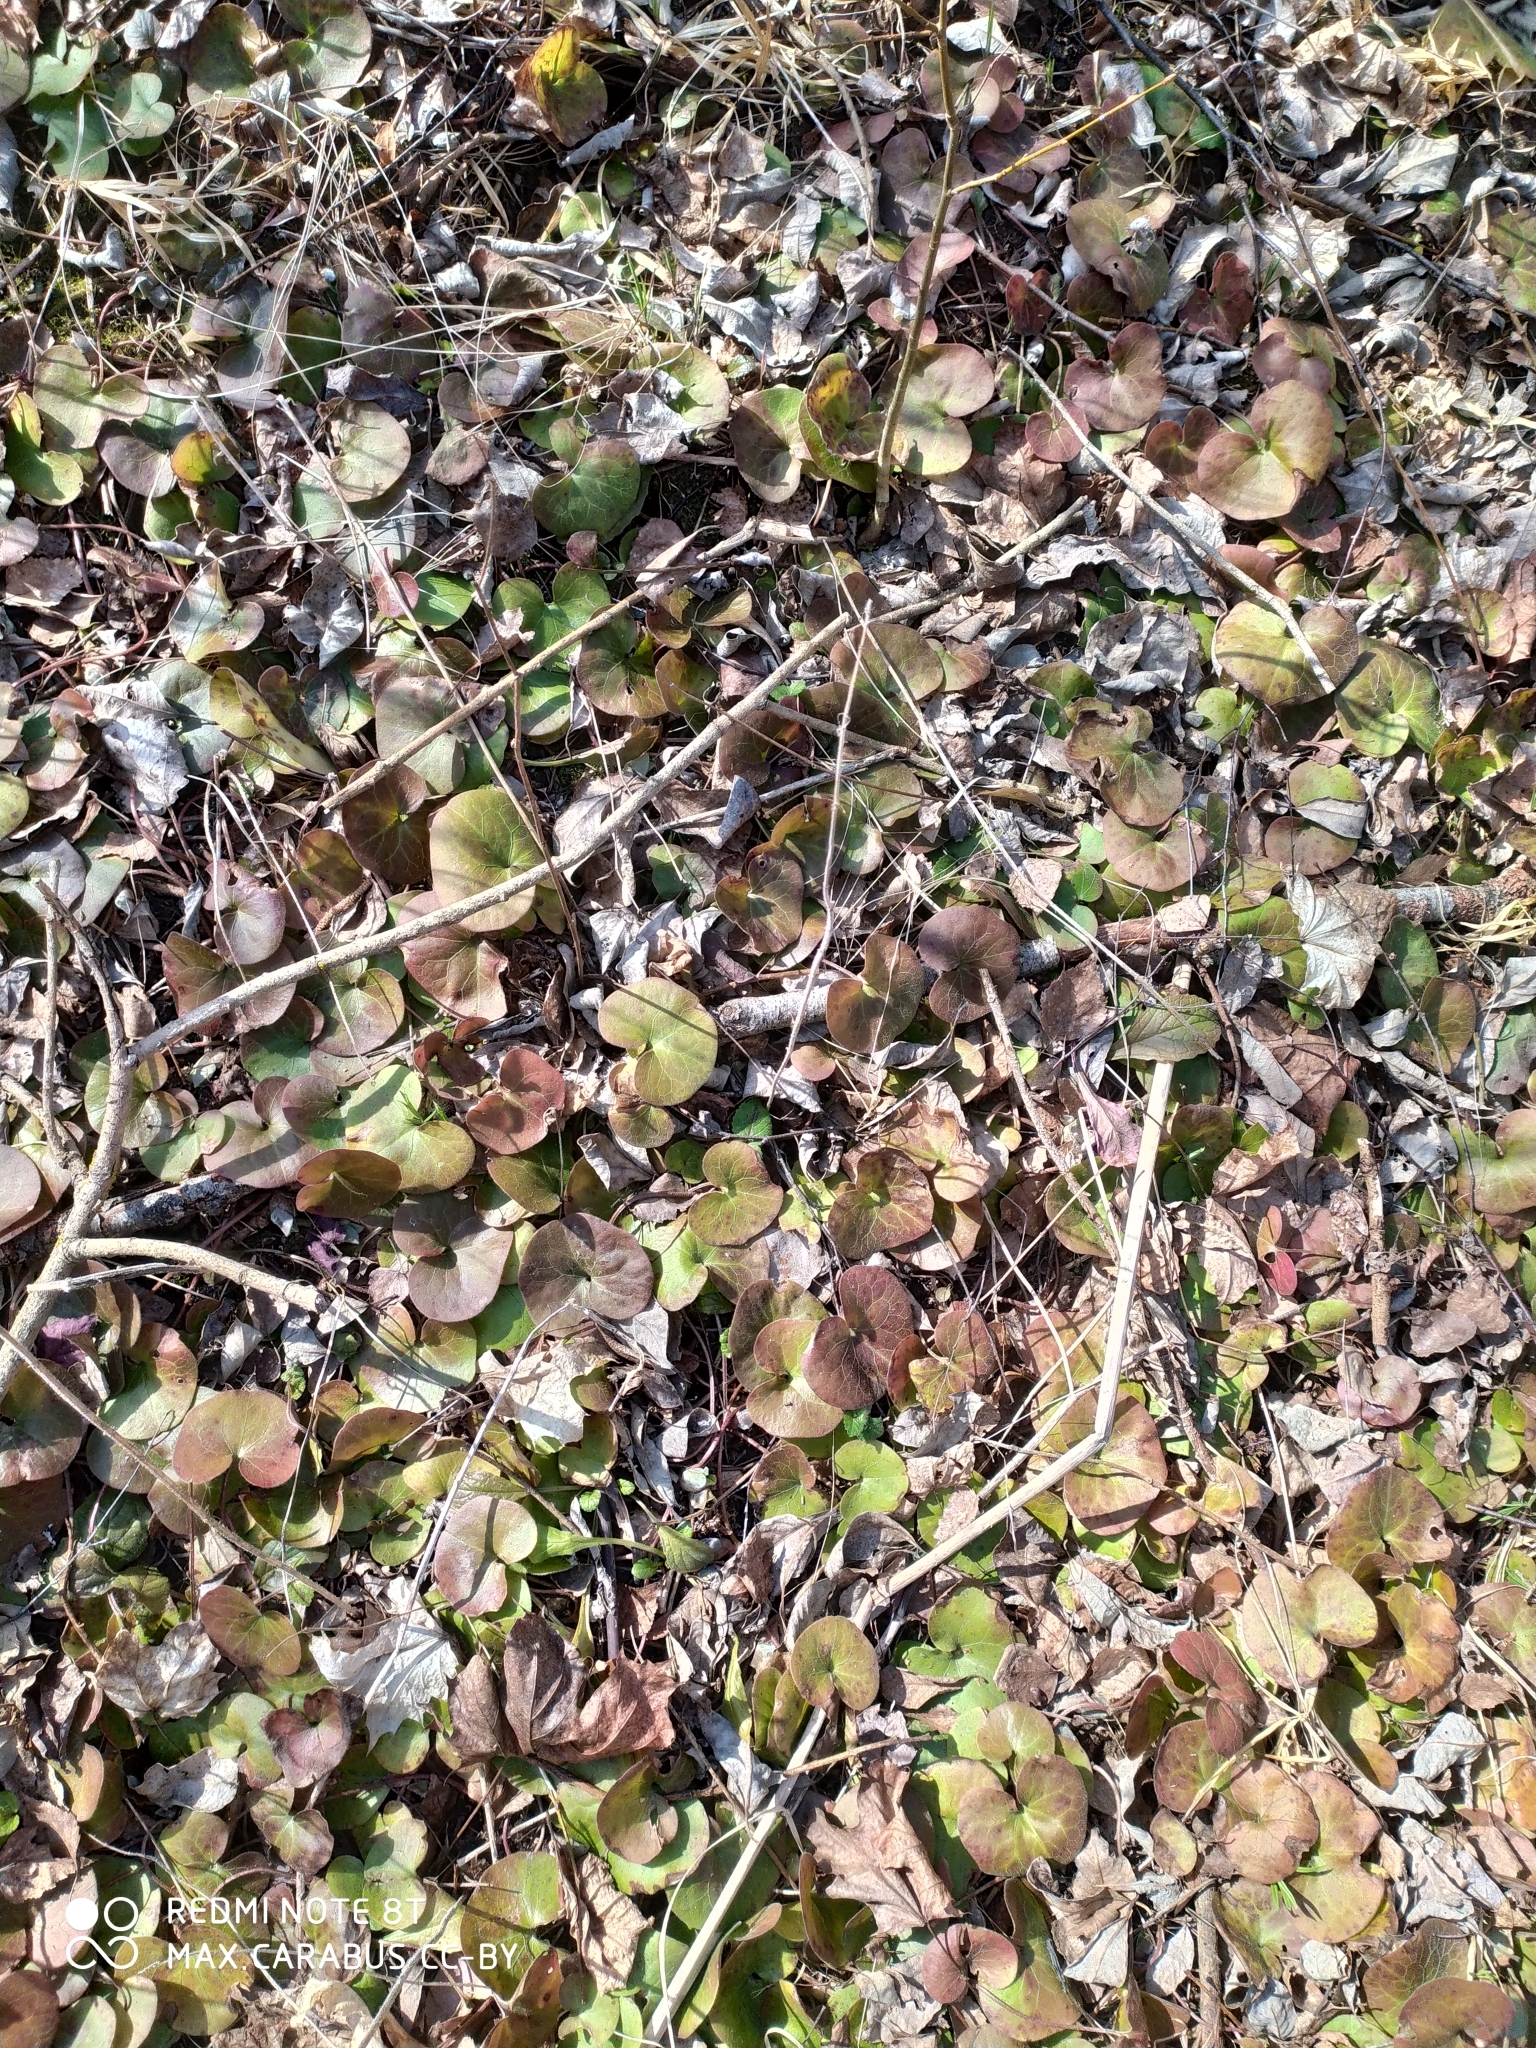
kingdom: Plantae
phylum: Tracheophyta
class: Magnoliopsida
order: Piperales
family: Aristolochiaceae
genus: Asarum
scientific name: Asarum europaeum
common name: Asarabacca
